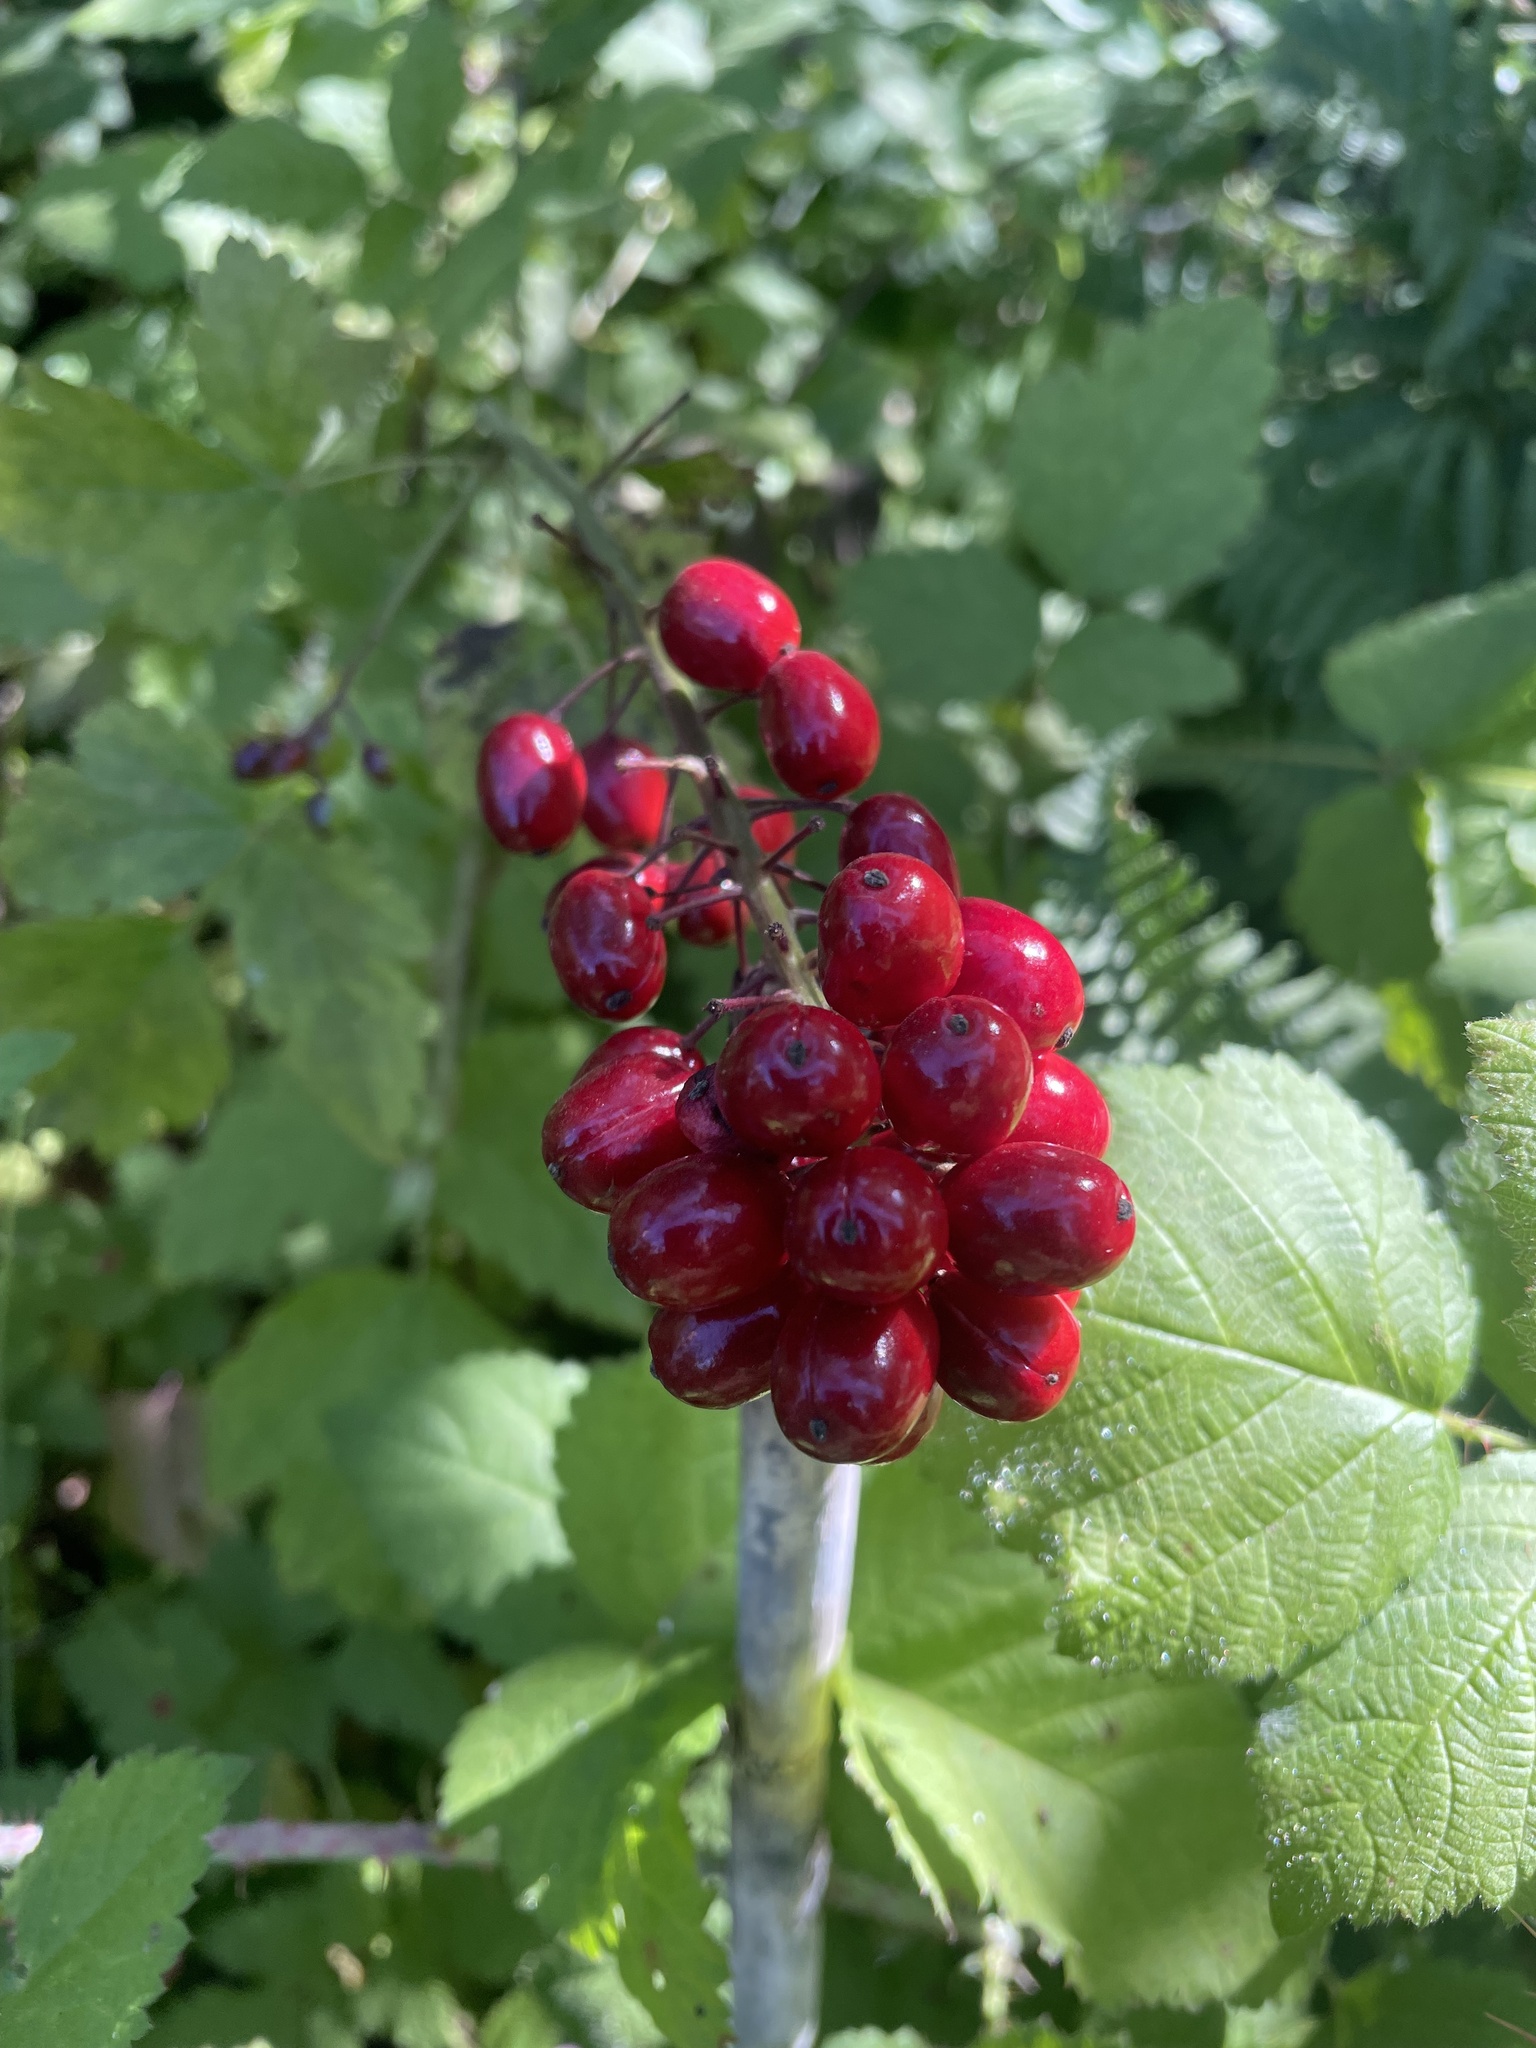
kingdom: Plantae
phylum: Tracheophyta
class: Magnoliopsida
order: Ranunculales
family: Ranunculaceae
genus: Actaea
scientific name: Actaea rubra
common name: Red baneberry
